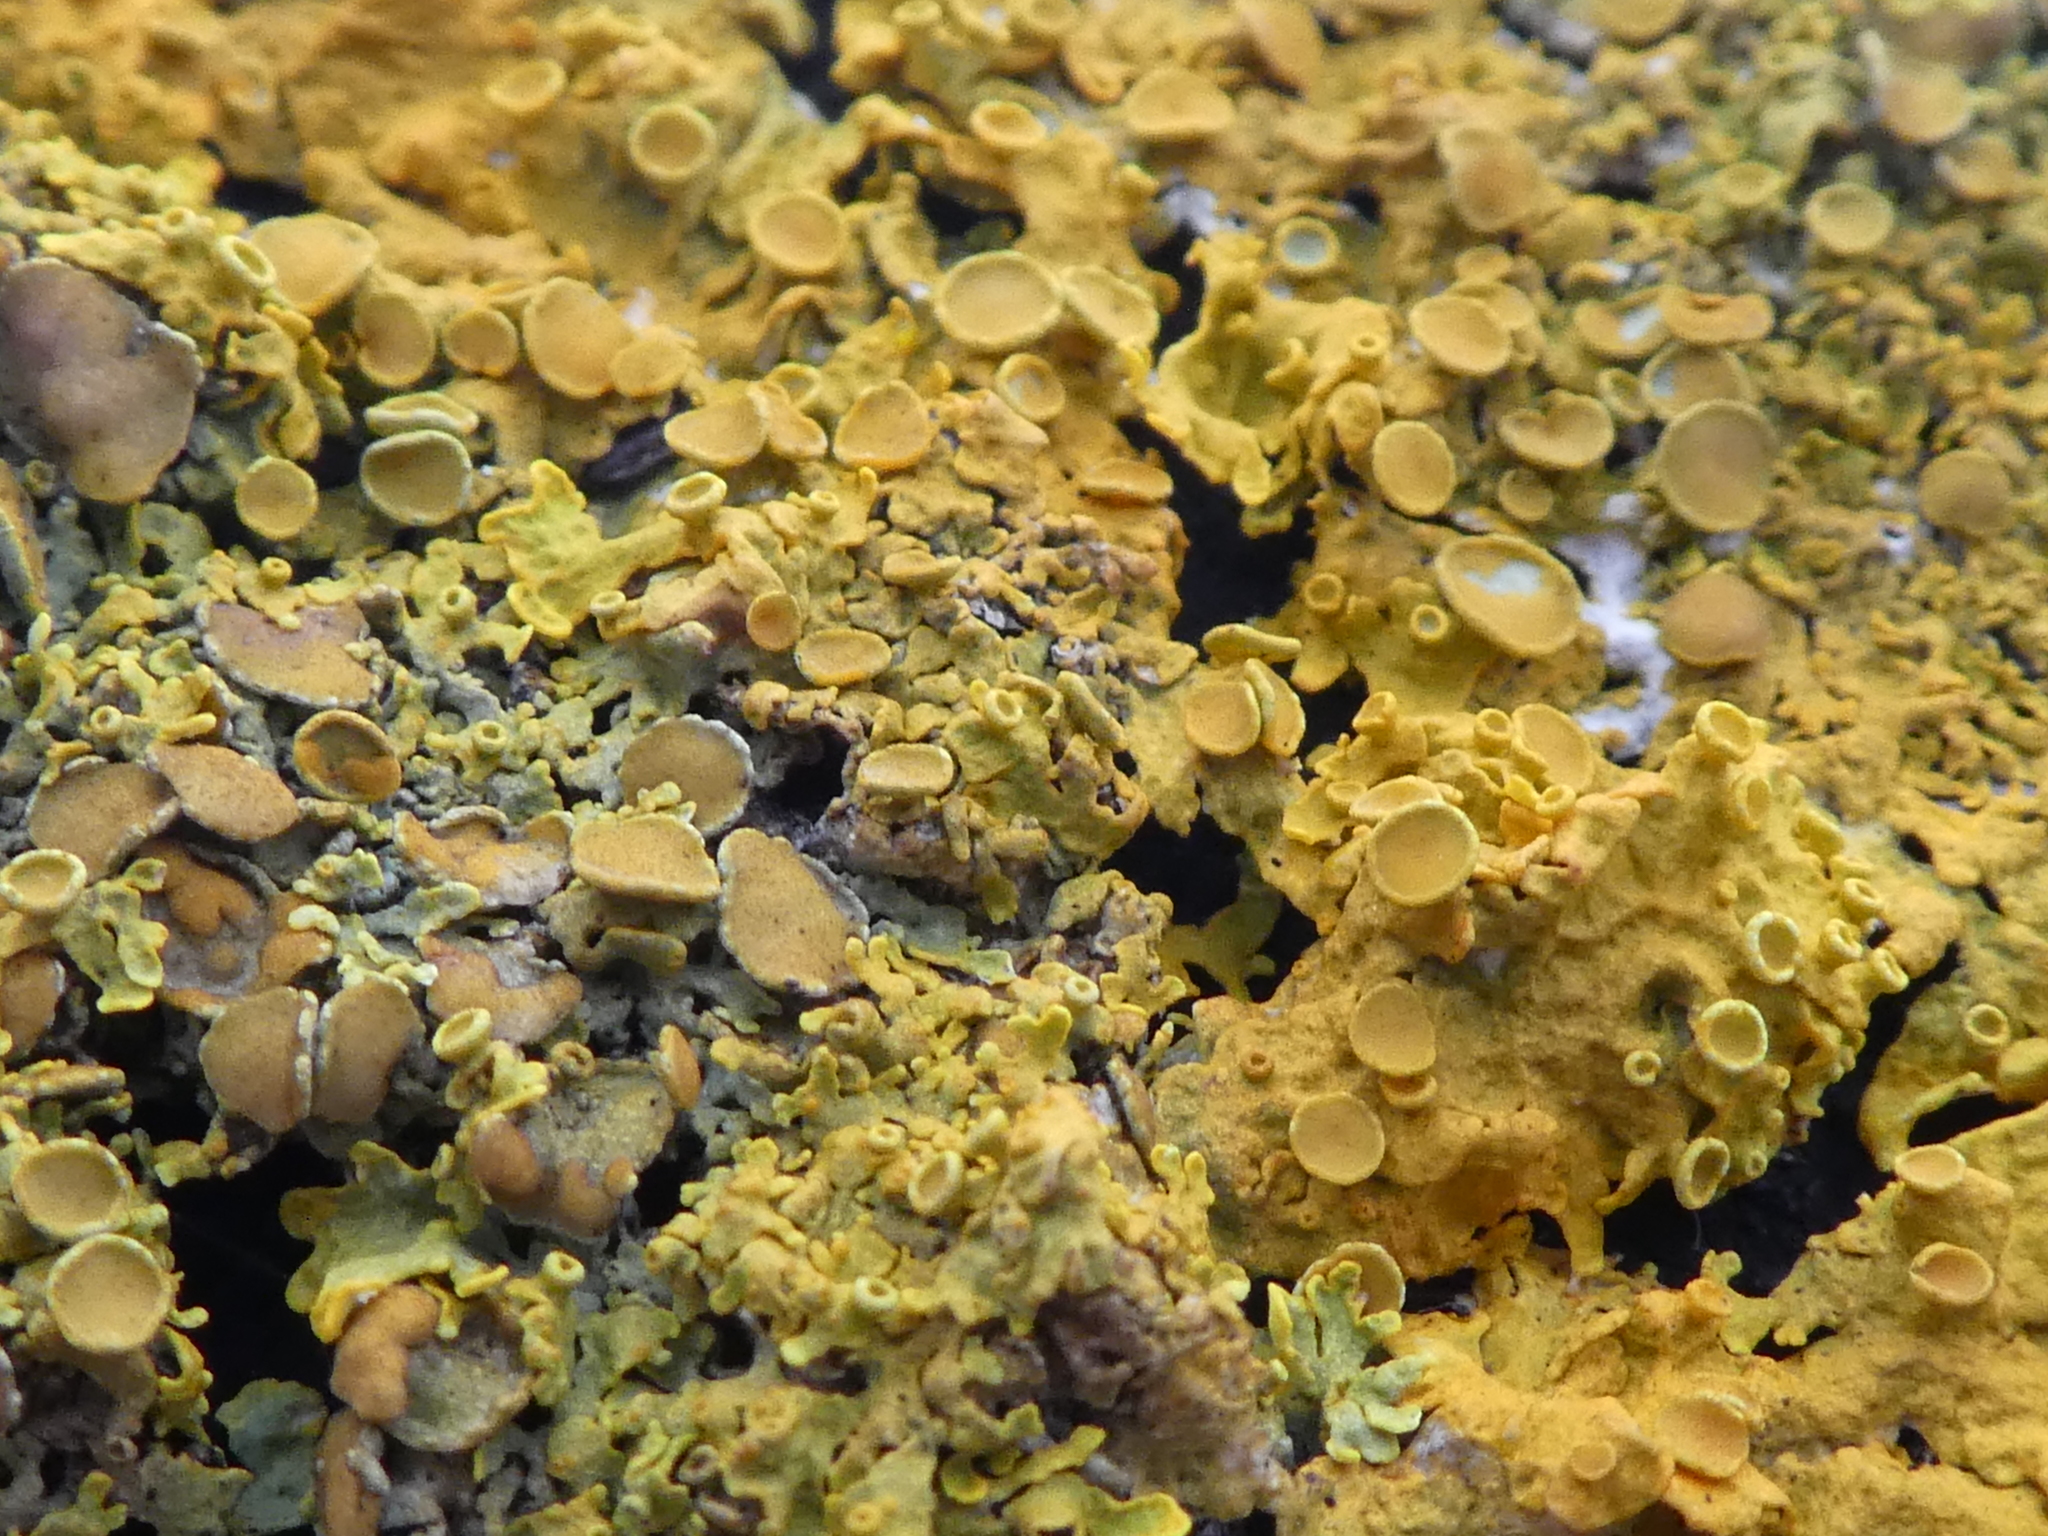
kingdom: Fungi
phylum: Ascomycota
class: Lecanoromycetes
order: Teloschistales
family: Teloschistaceae
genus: Xanthoria
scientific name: Xanthoria parietina
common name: Common orange lichen
